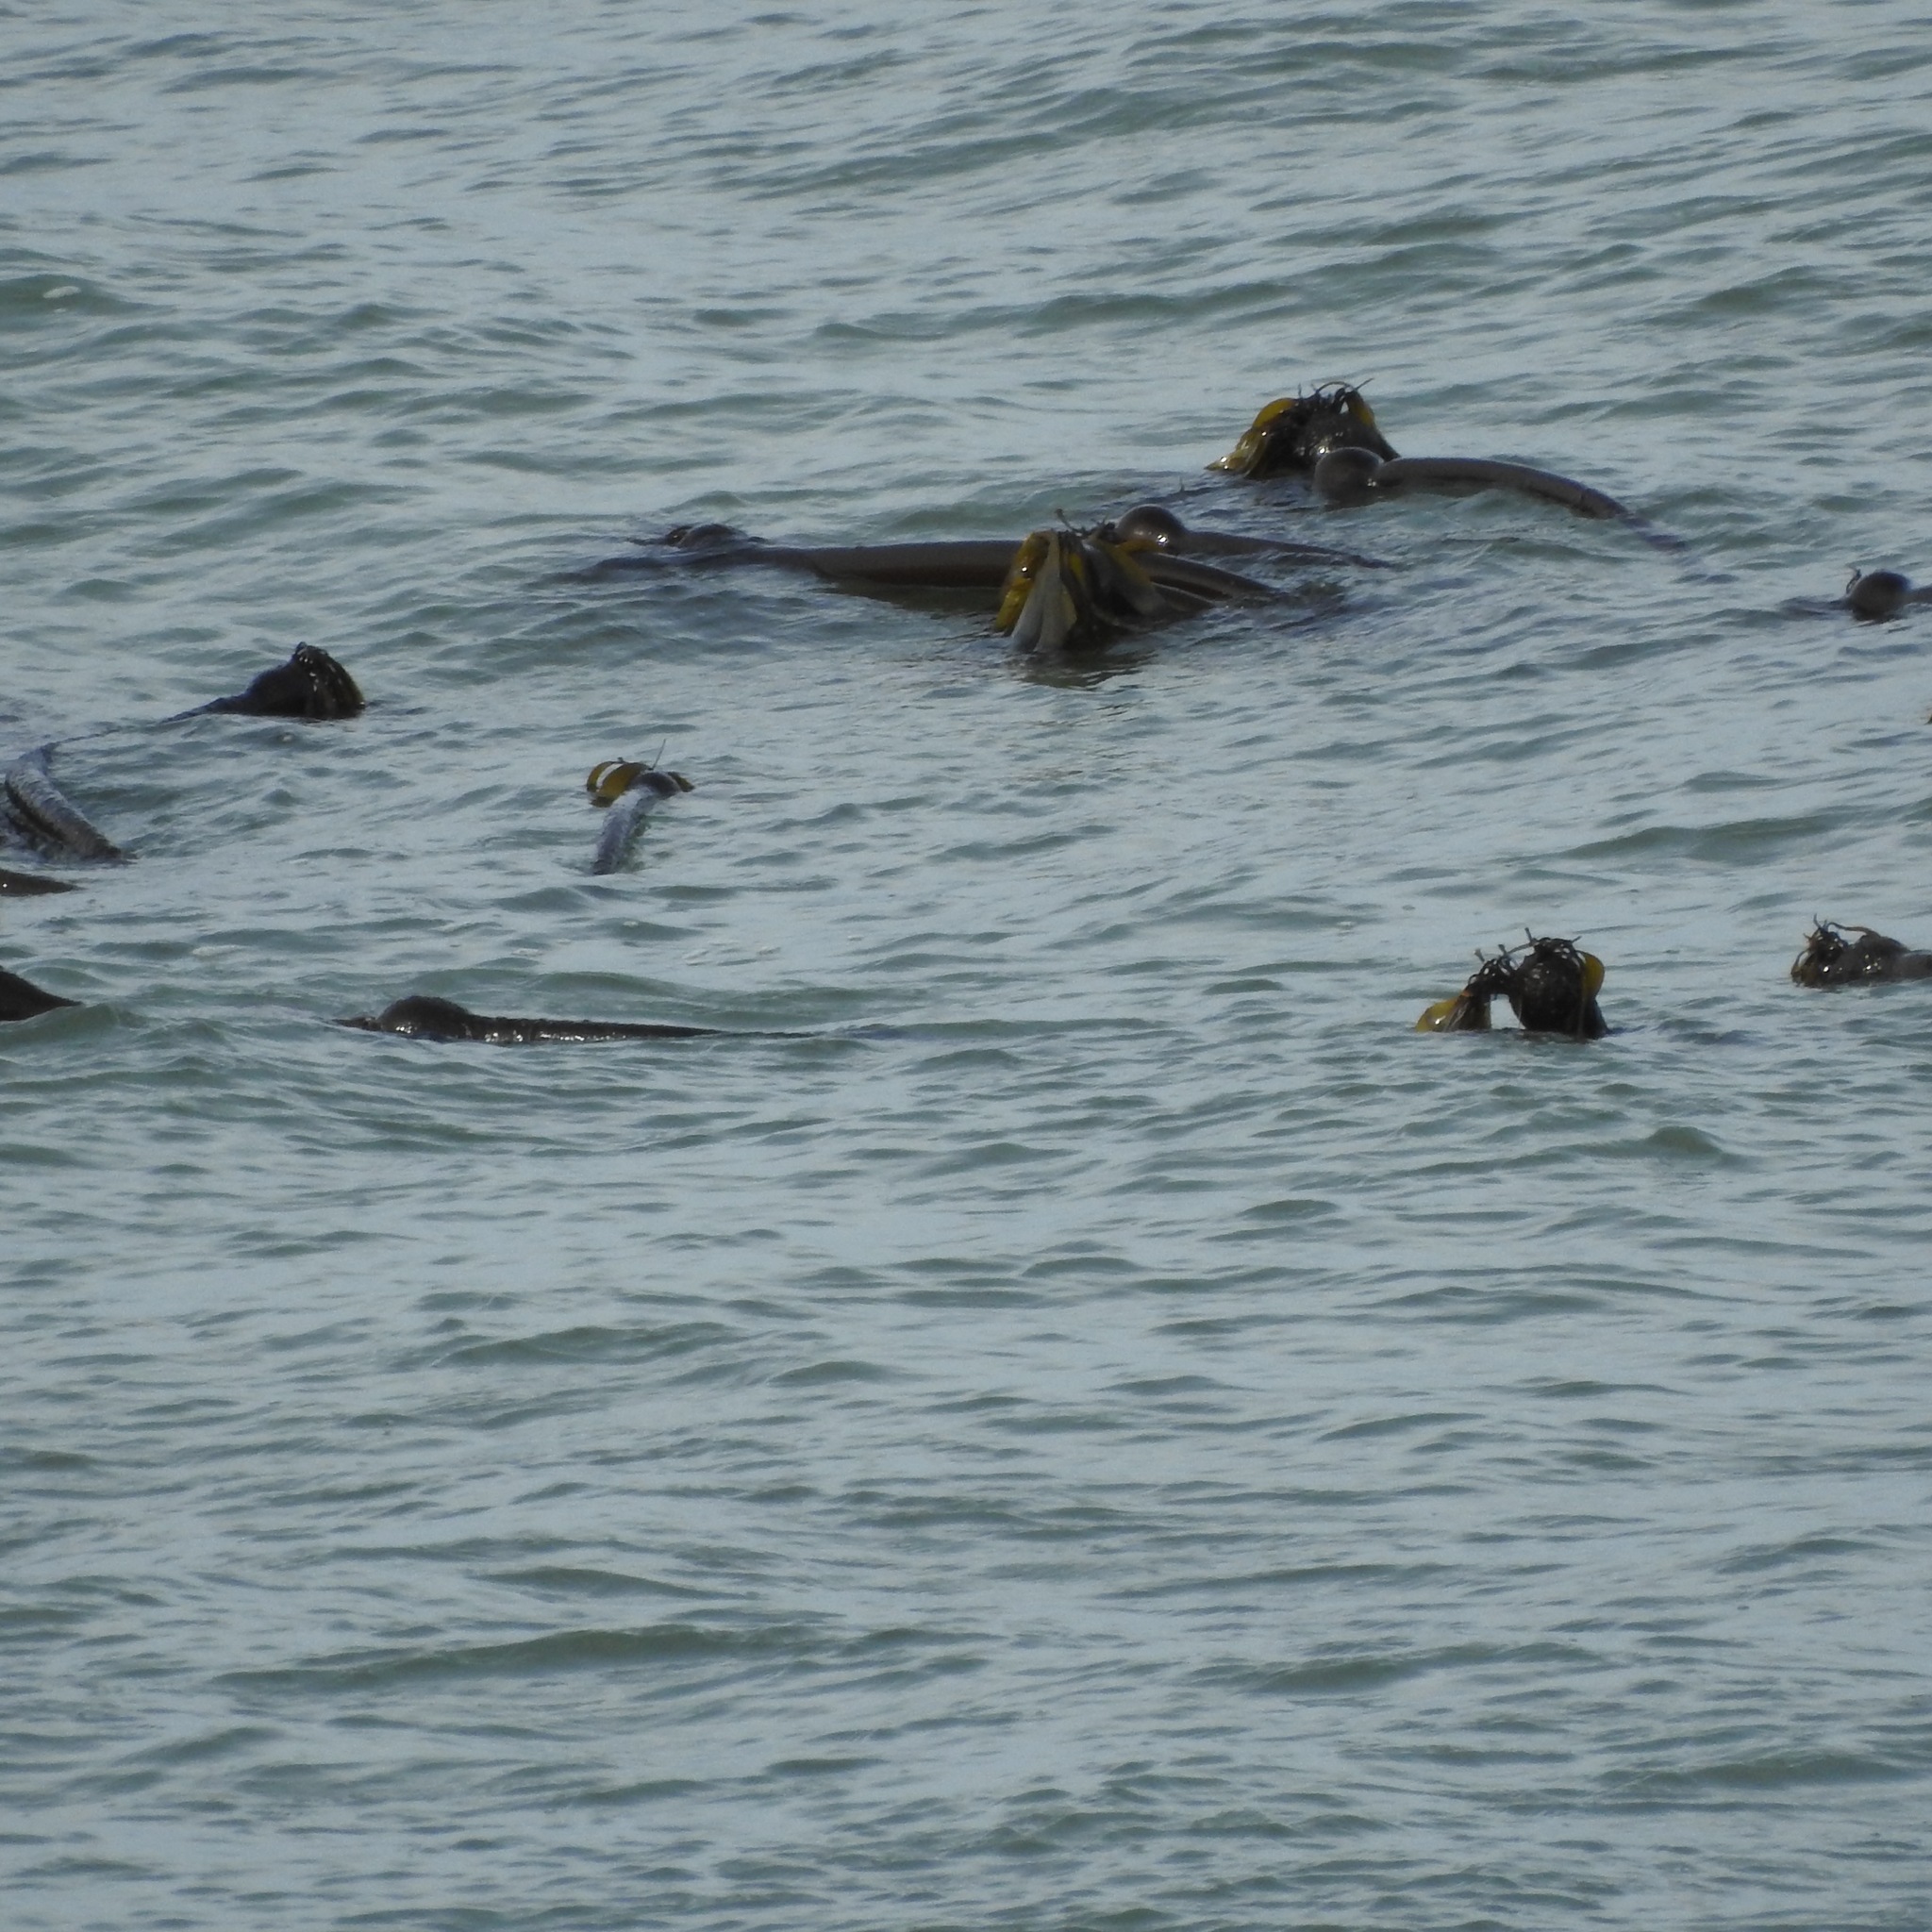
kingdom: Chromista
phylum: Ochrophyta
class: Phaeophyceae
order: Laminariales
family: Laminariaceae
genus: Nereocystis
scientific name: Nereocystis luetkeana
